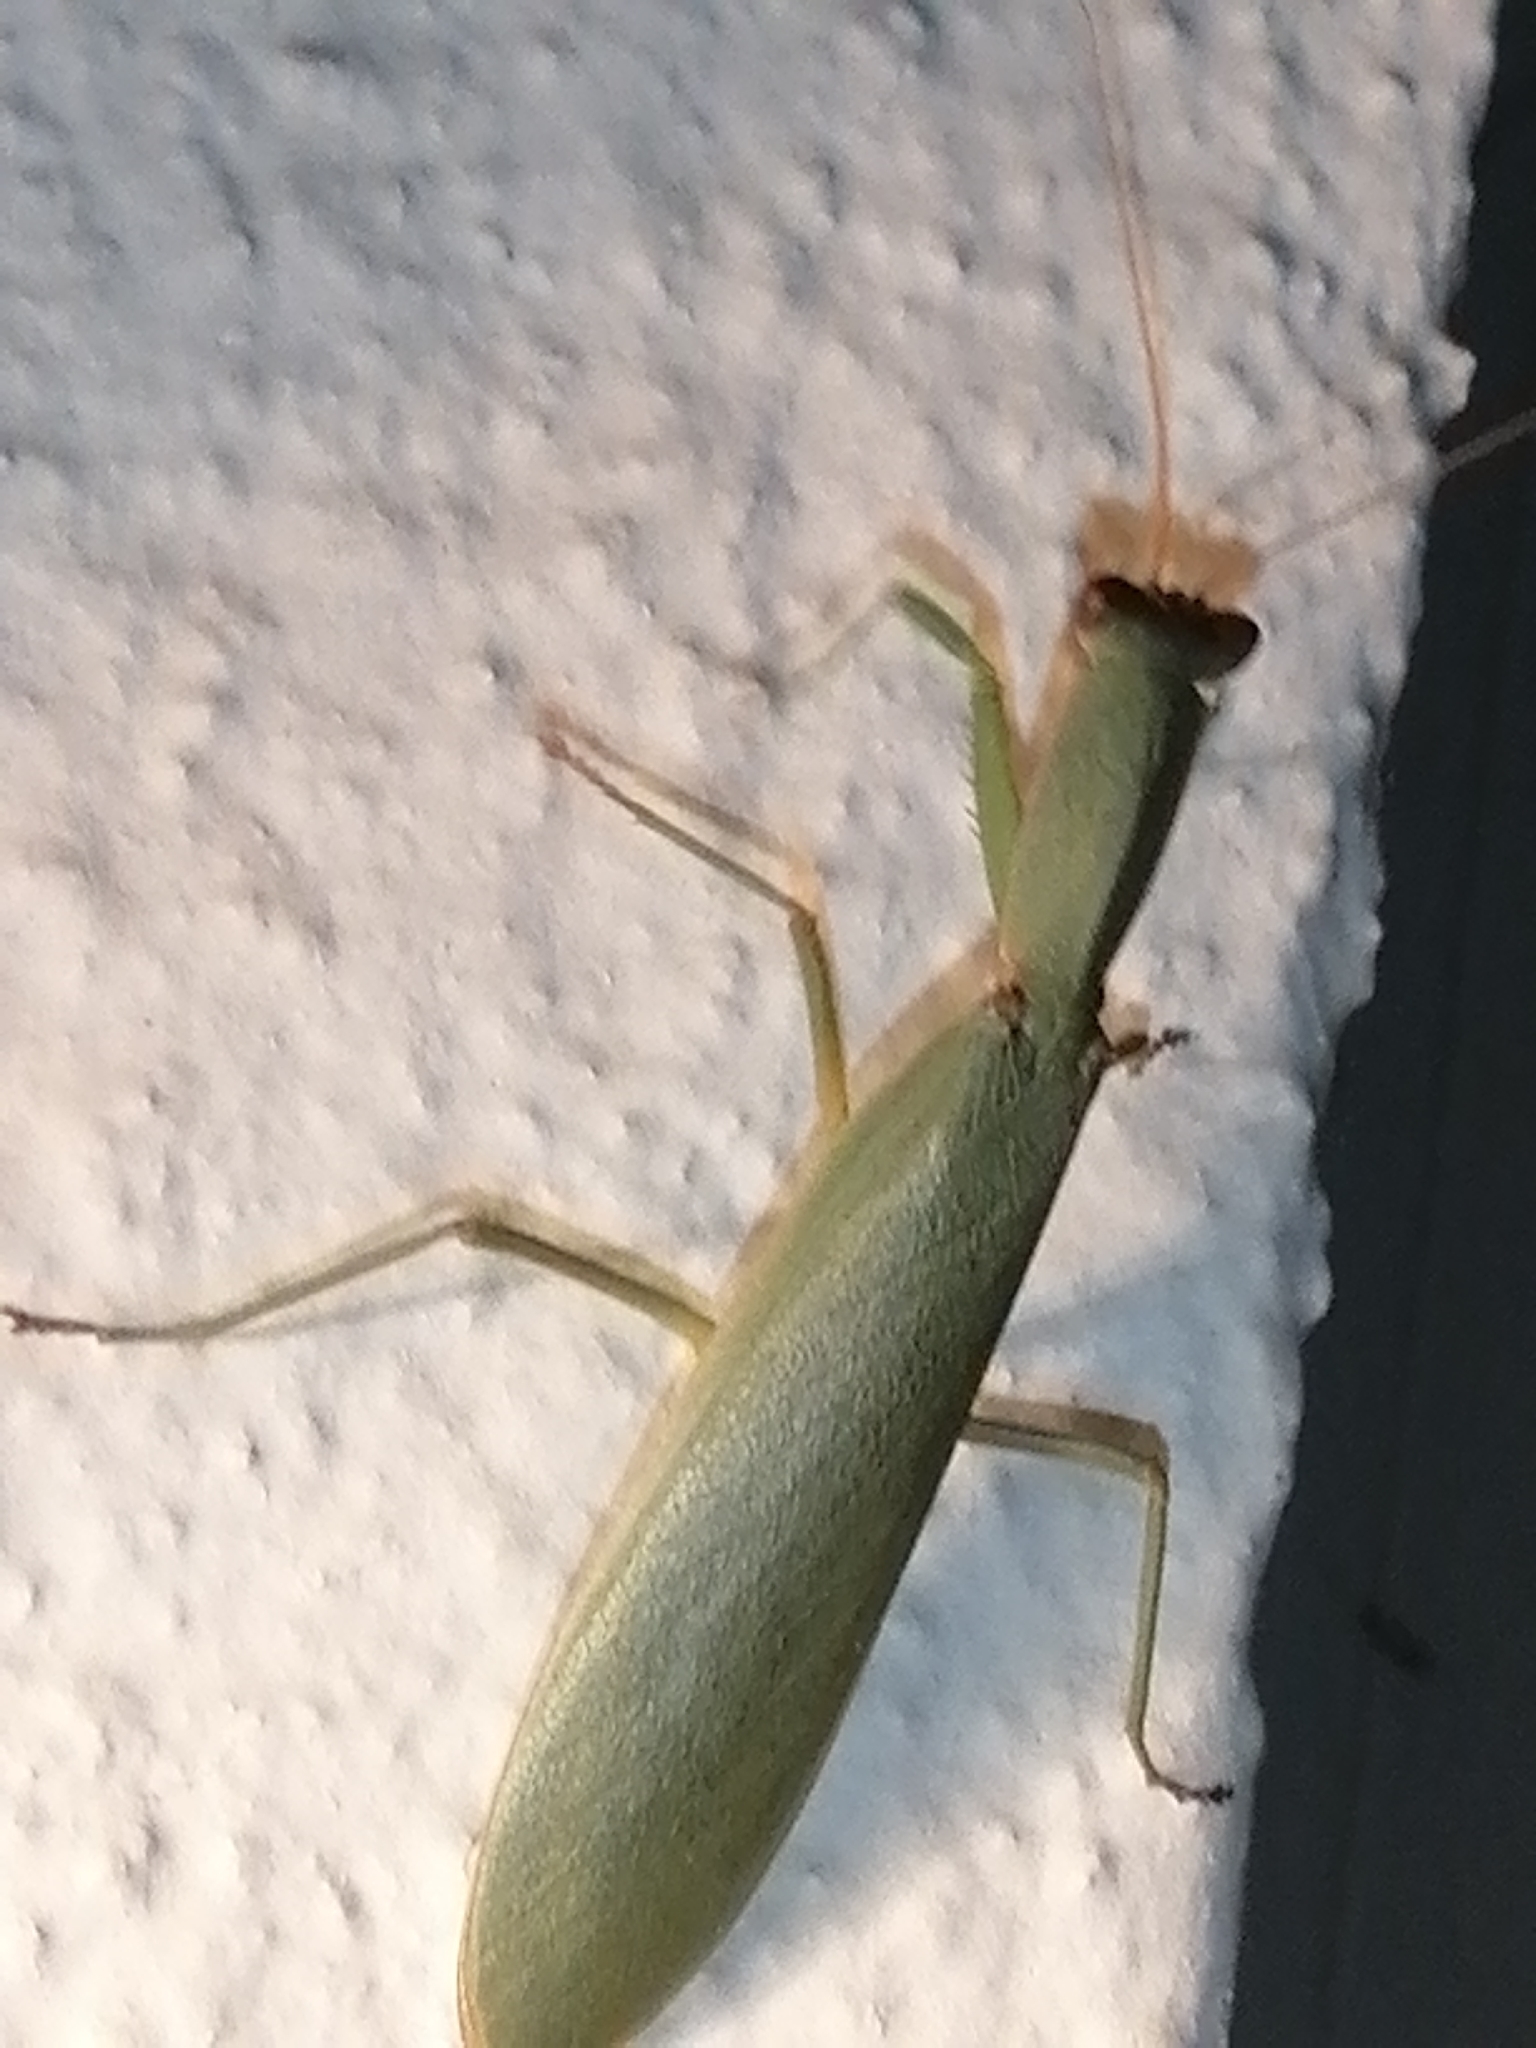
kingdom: Animalia
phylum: Arthropoda
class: Insecta
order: Mantodea
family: Mantidae
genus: Orthodera
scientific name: Orthodera novaezealandiae
